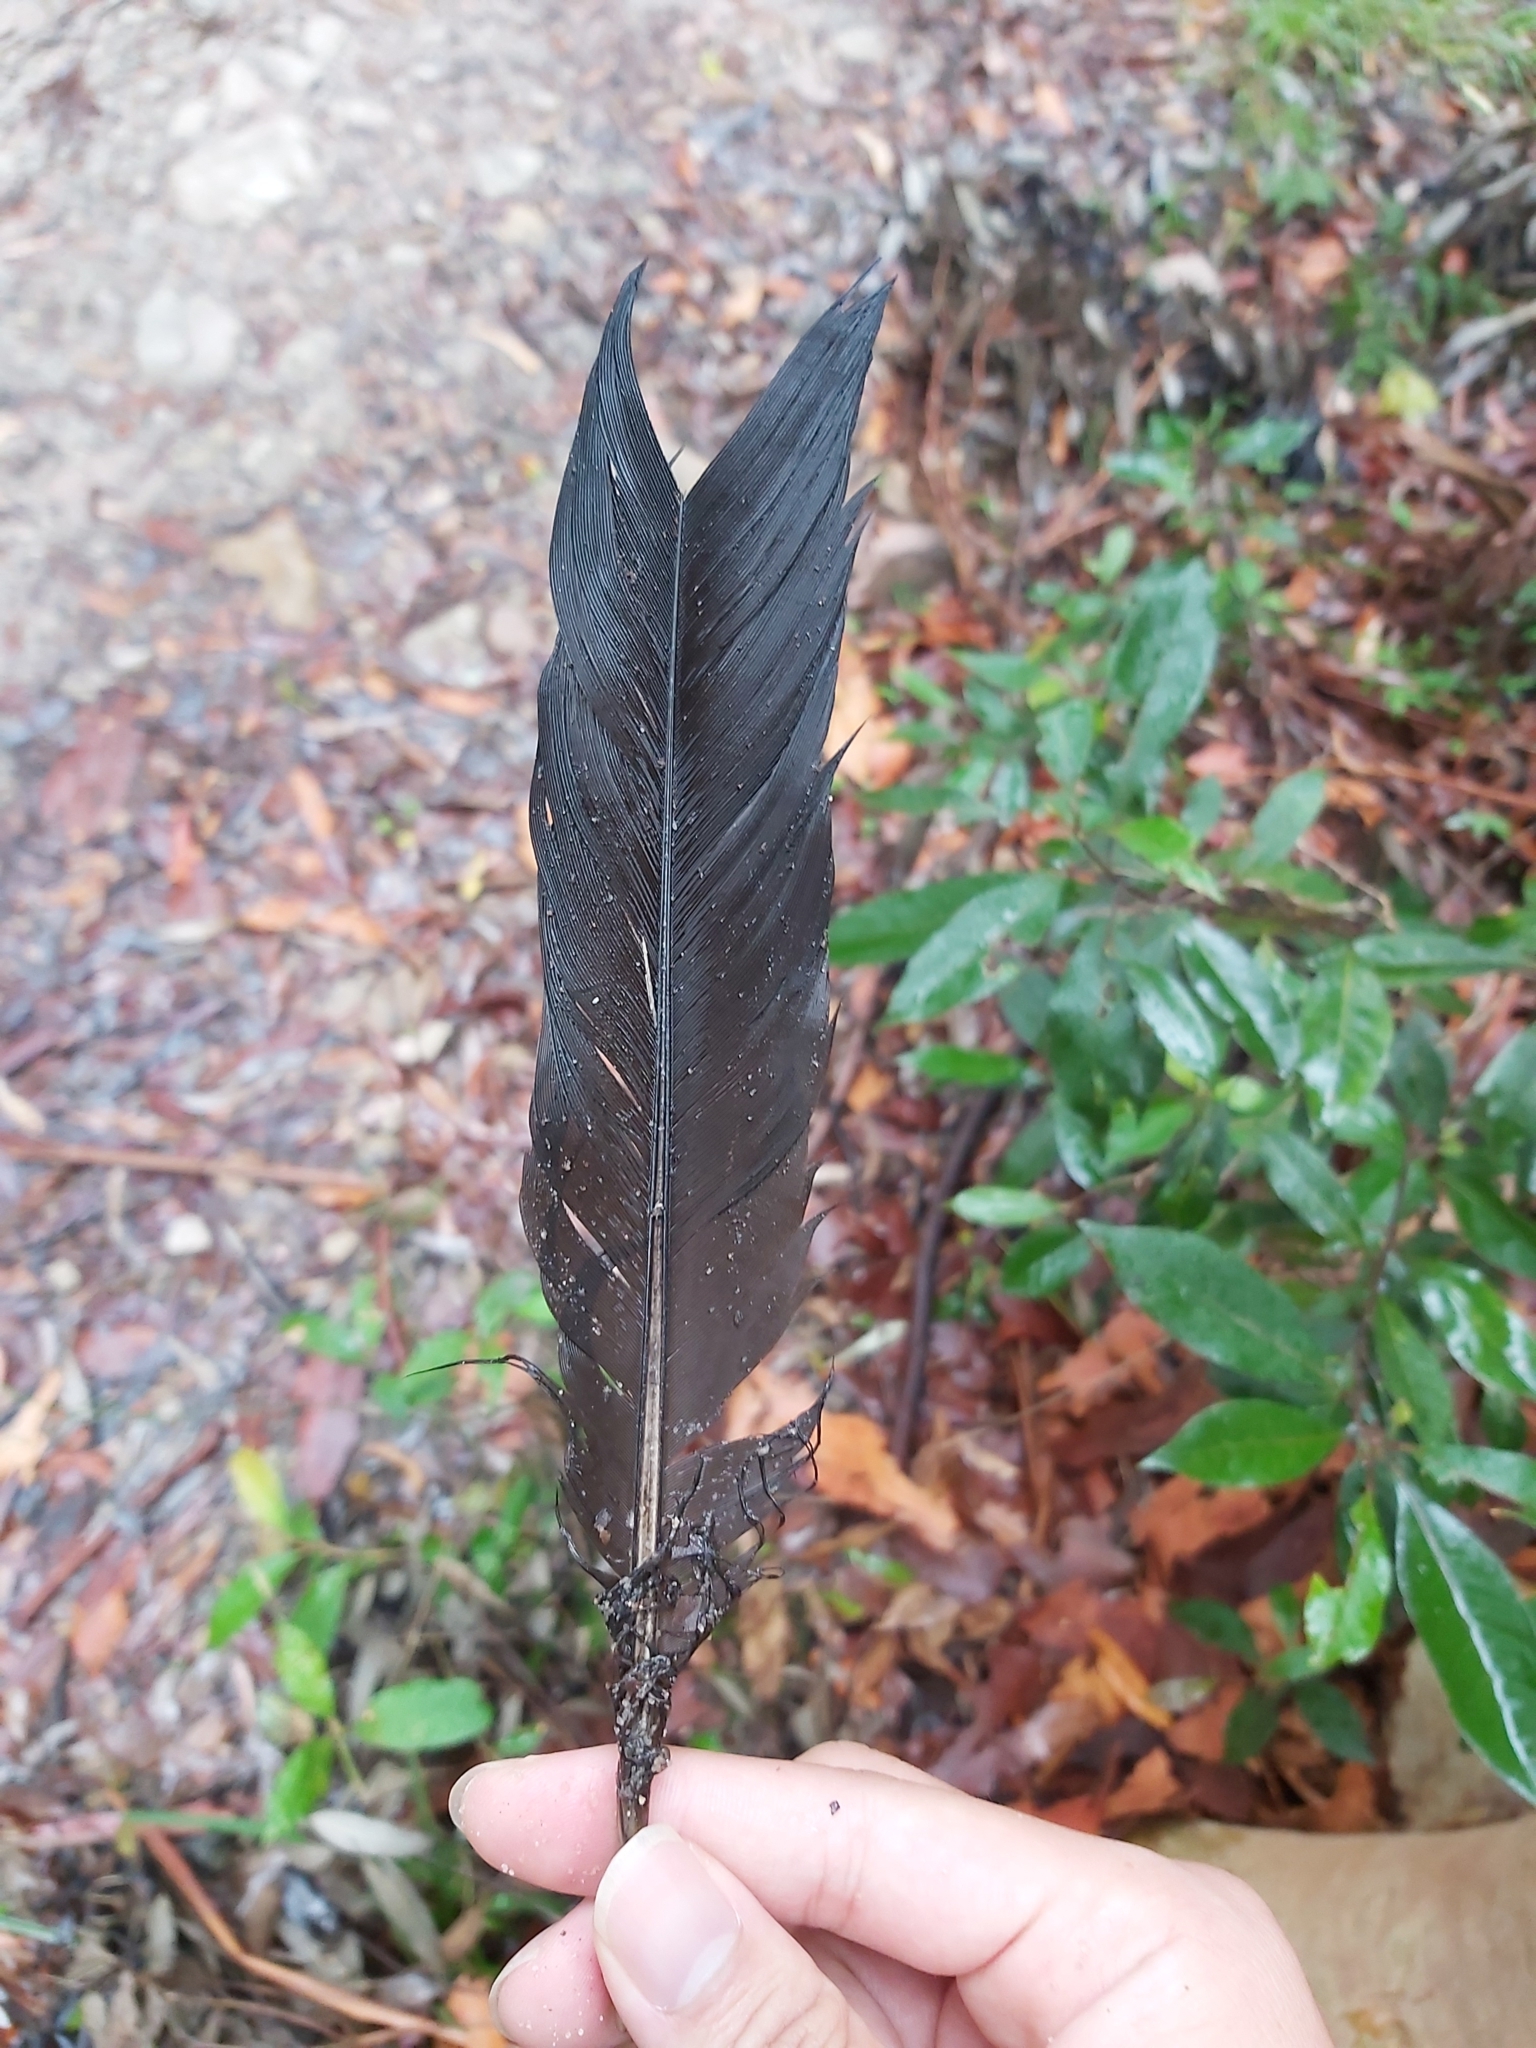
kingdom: Animalia
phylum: Chordata
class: Aves
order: Galliformes
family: Megapodiidae
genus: Alectura
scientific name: Alectura lathami
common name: Australian brushturkey
